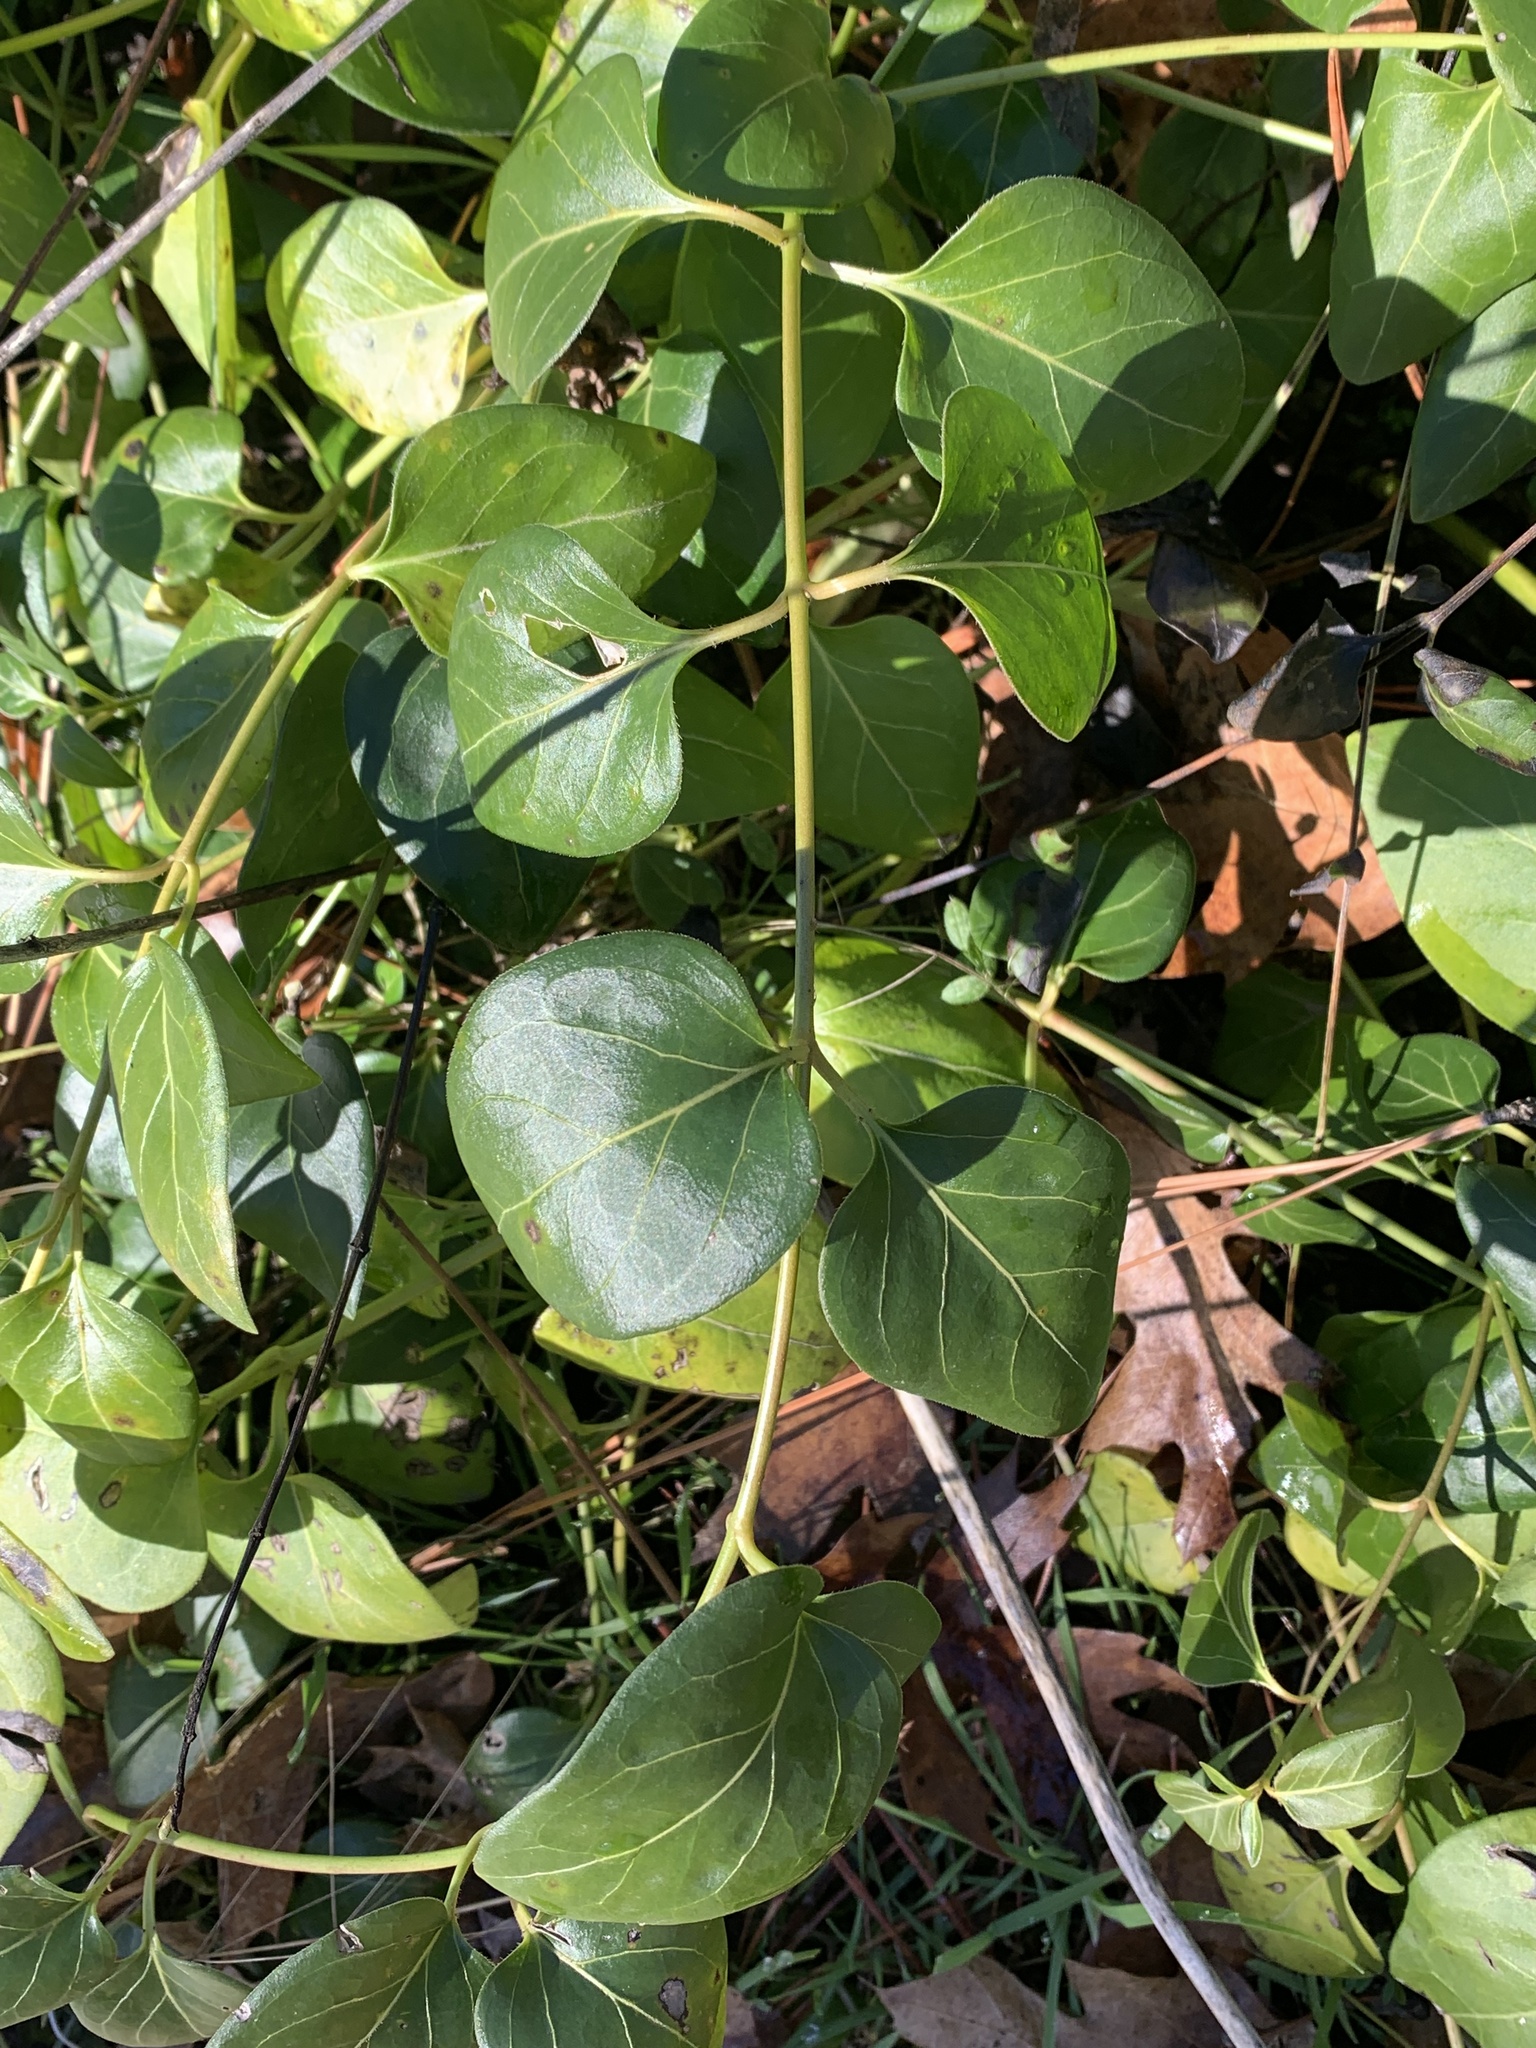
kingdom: Plantae
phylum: Tracheophyta
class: Magnoliopsida
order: Gentianales
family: Apocynaceae
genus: Vinca
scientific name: Vinca major
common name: Greater periwinkle
